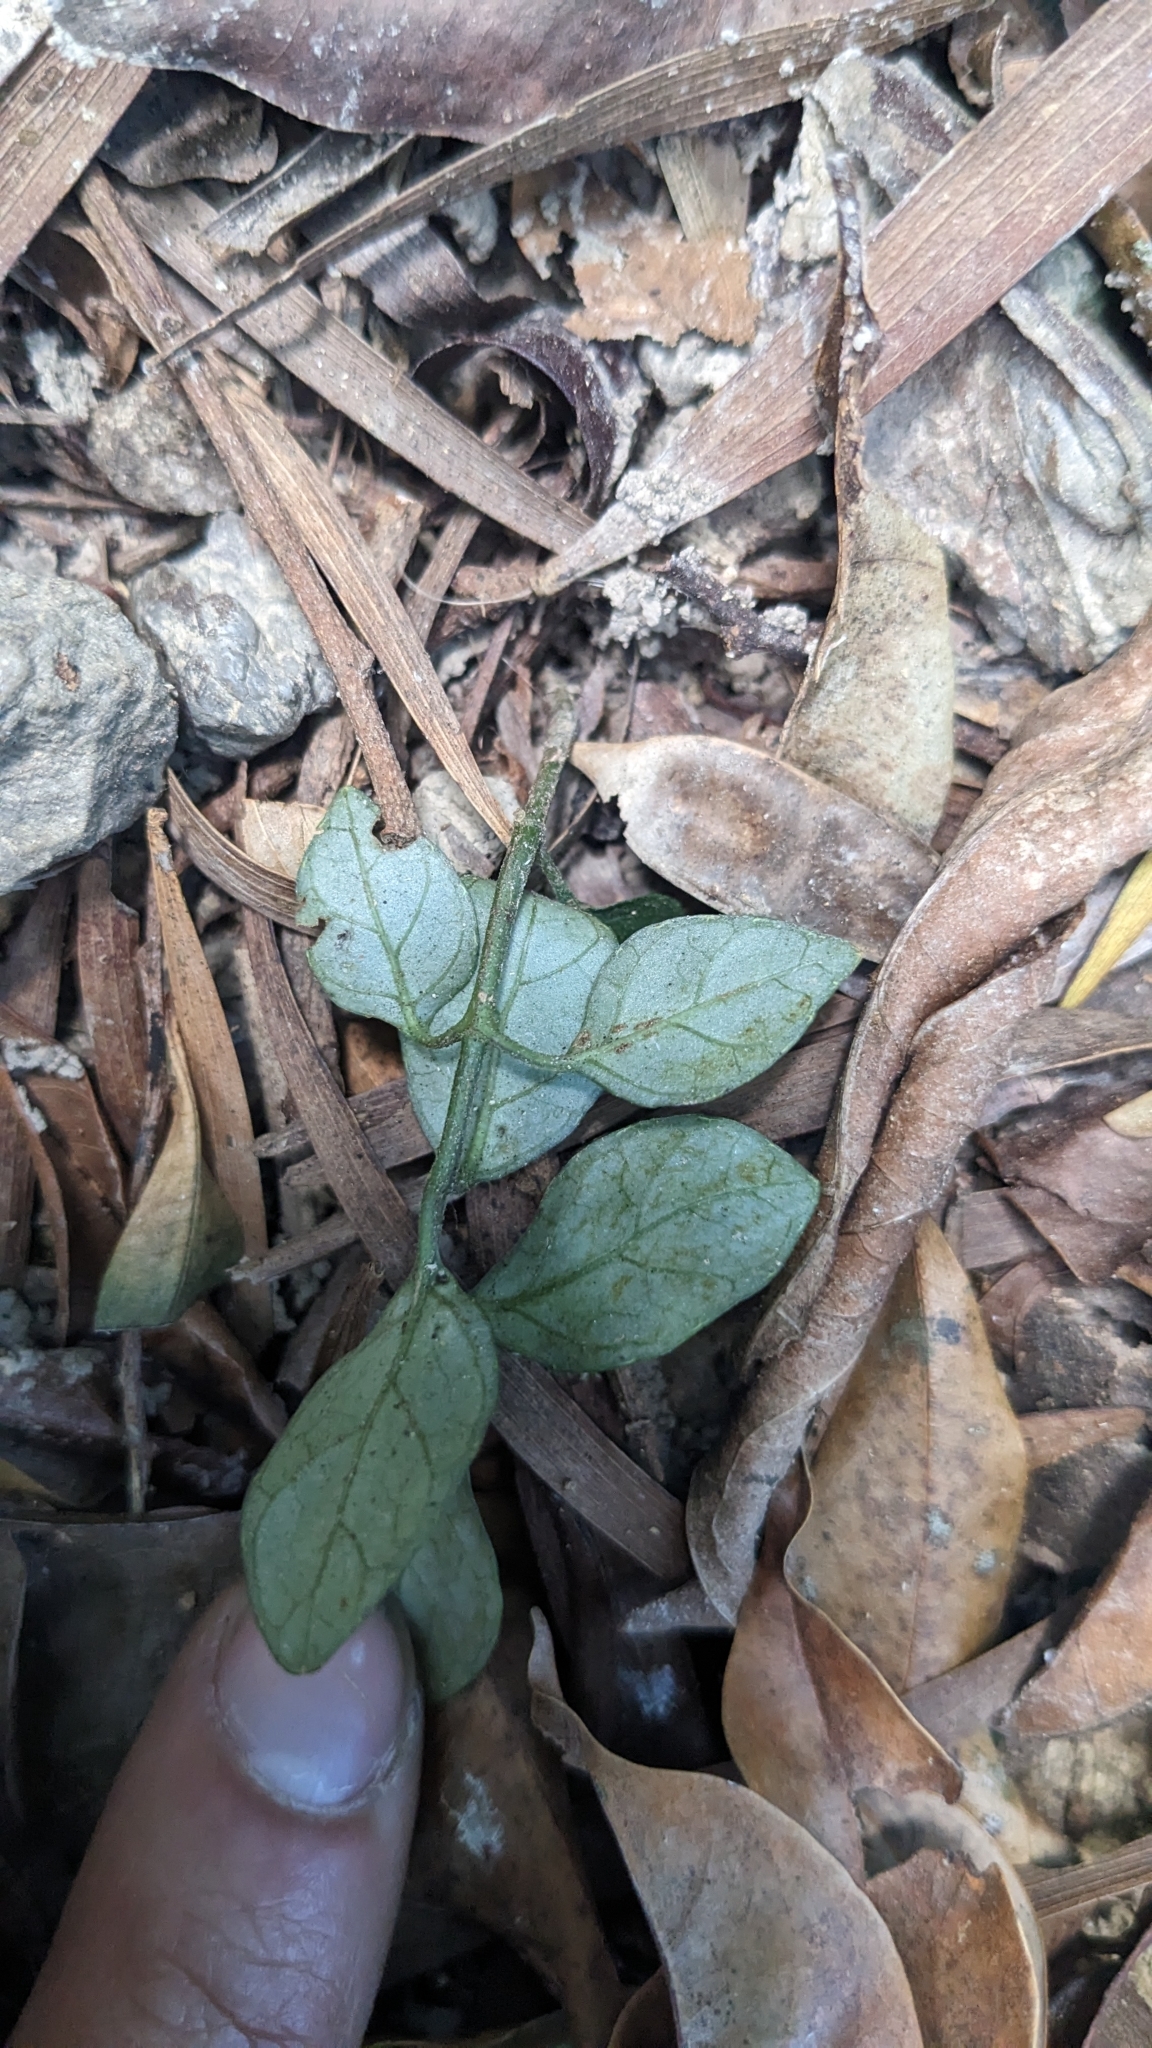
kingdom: Plantae
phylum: Tracheophyta
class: Magnoliopsida
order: Lamiales
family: Acanthaceae
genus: Codonacanthus
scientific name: Codonacanthus pauciflorus
